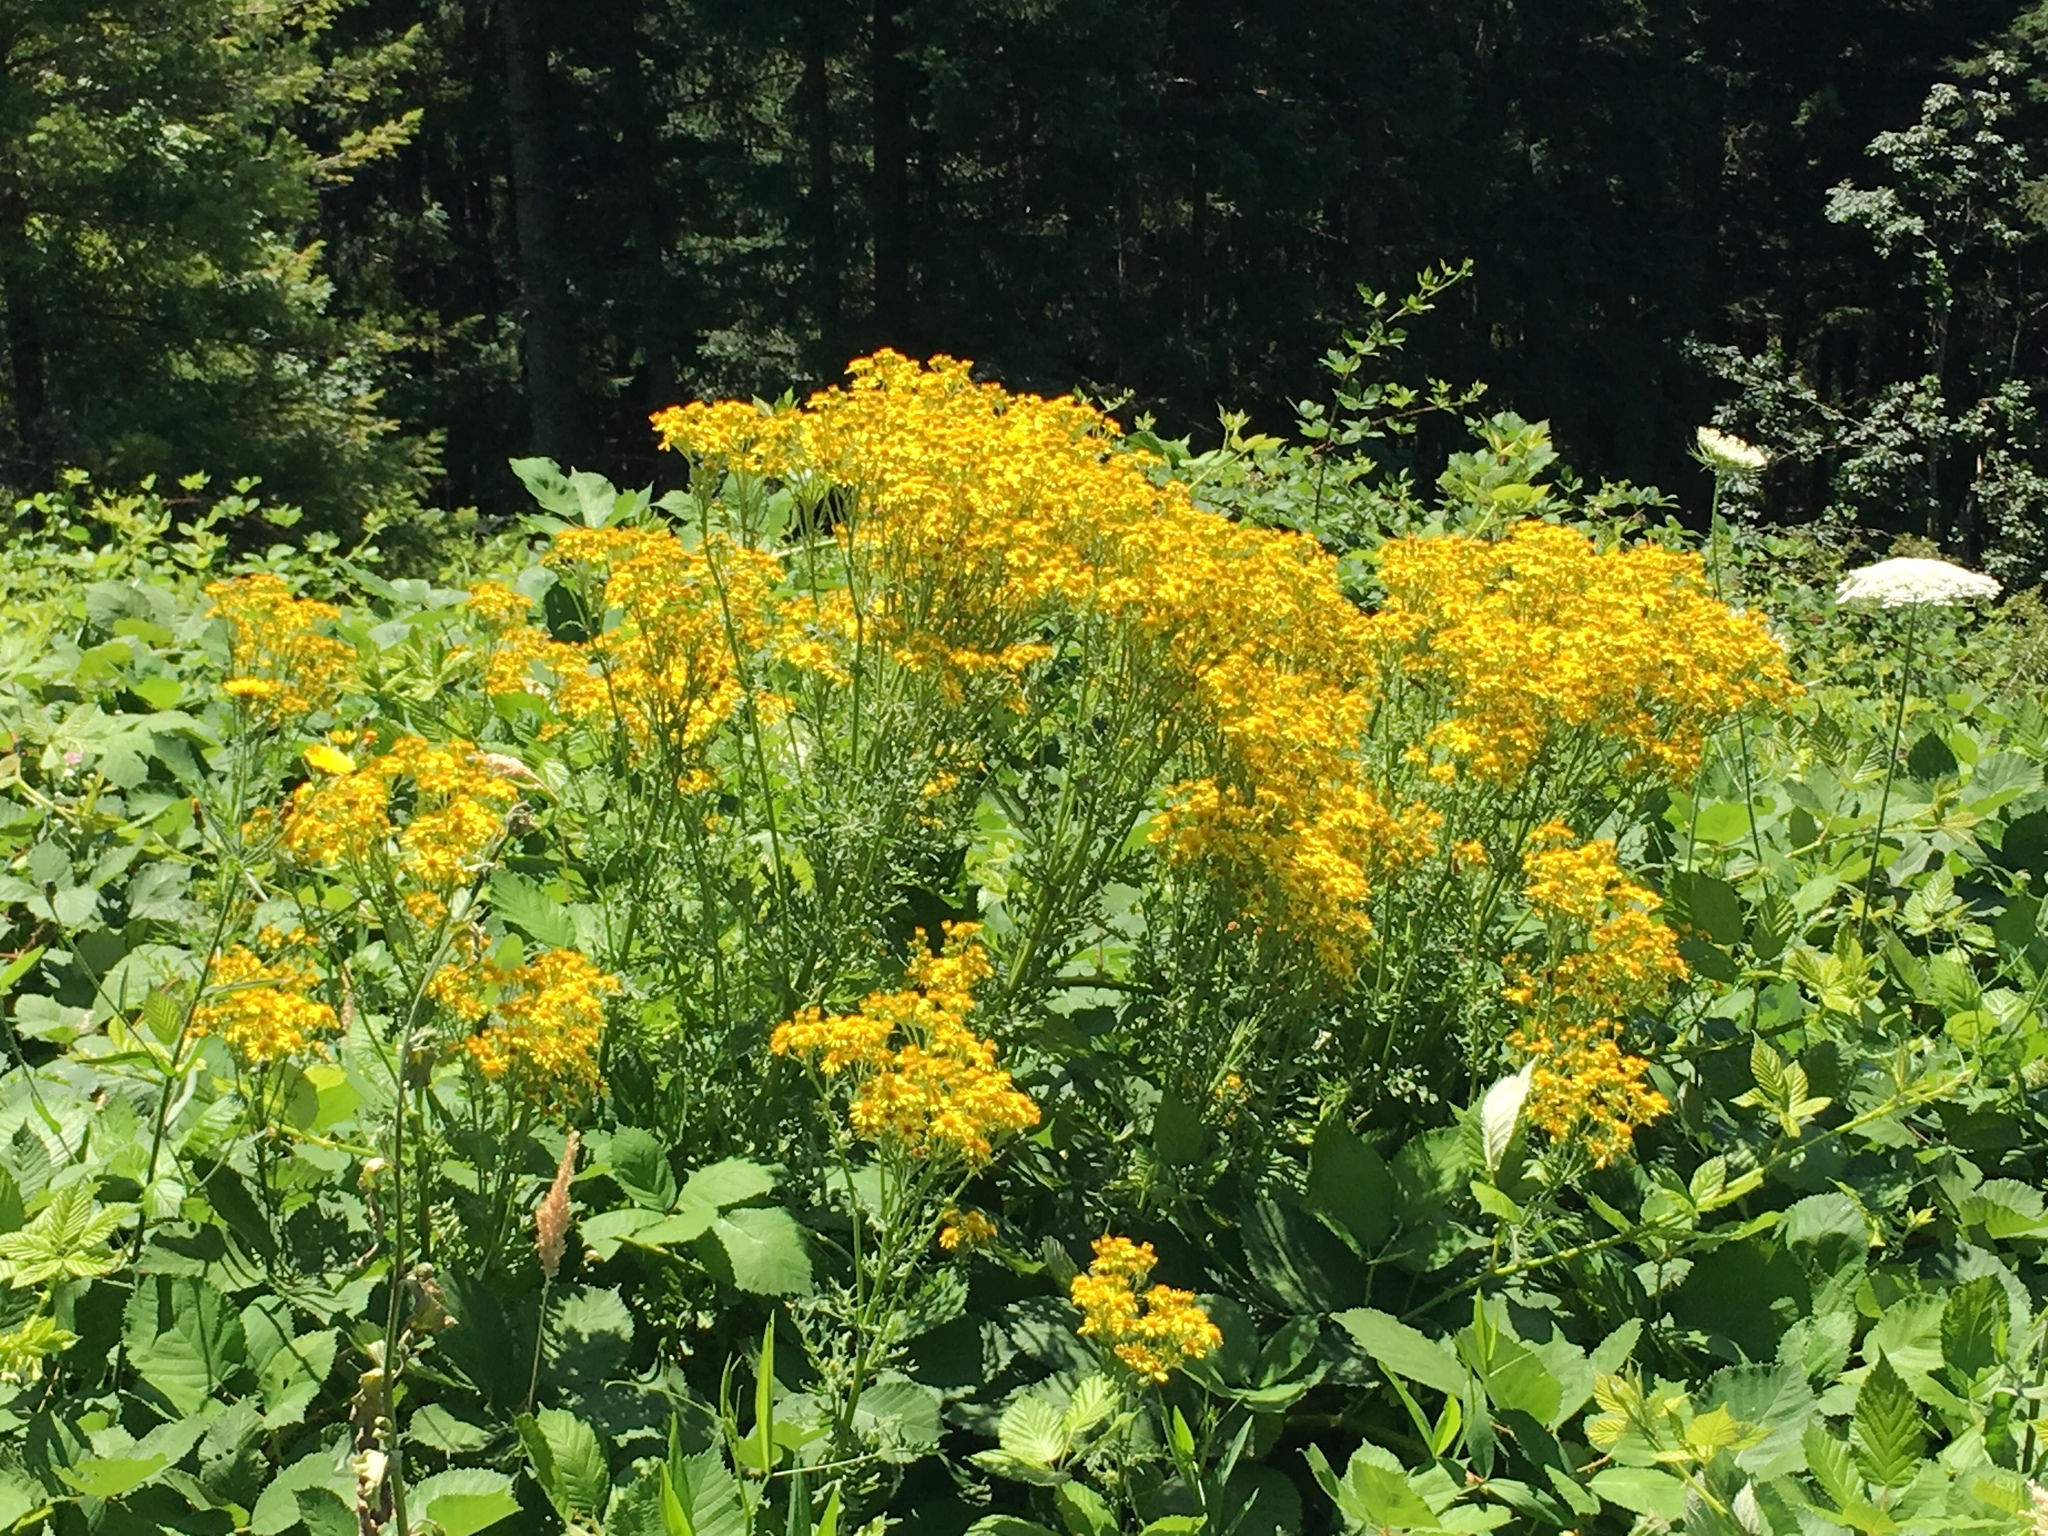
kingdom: Plantae
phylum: Tracheophyta
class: Magnoliopsida
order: Asterales
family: Asteraceae
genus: Jacobaea
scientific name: Jacobaea vulgaris
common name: Stinking willie
